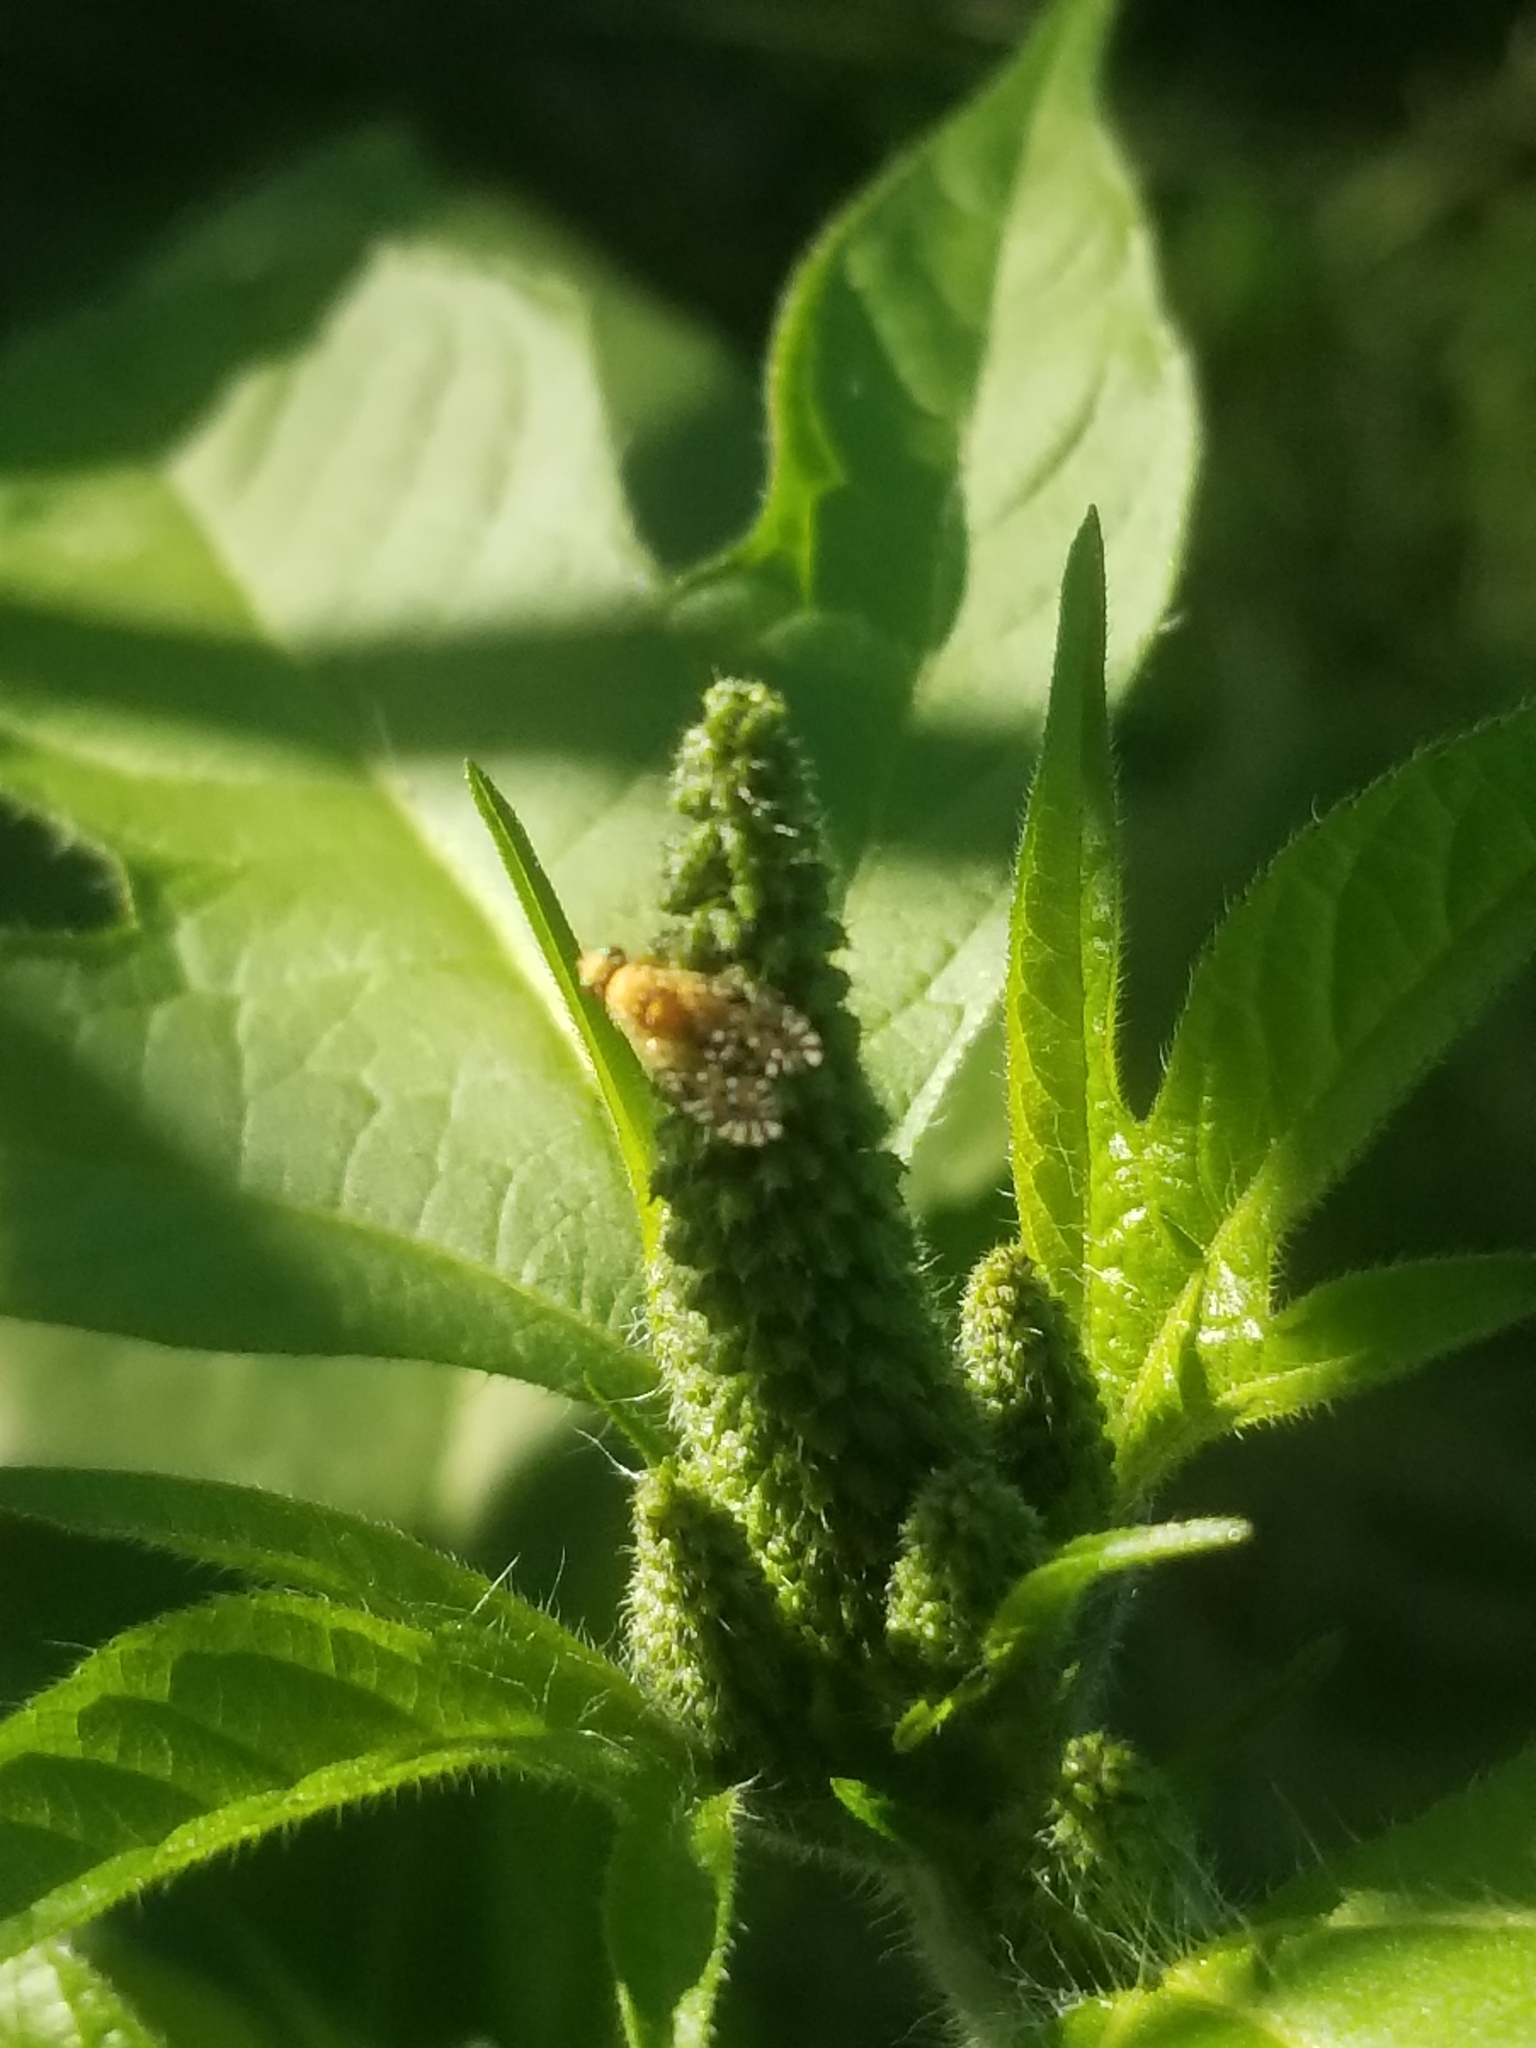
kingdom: Animalia
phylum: Arthropoda
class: Insecta
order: Diptera
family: Tephritidae
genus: Euaresta
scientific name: Euaresta festiva
